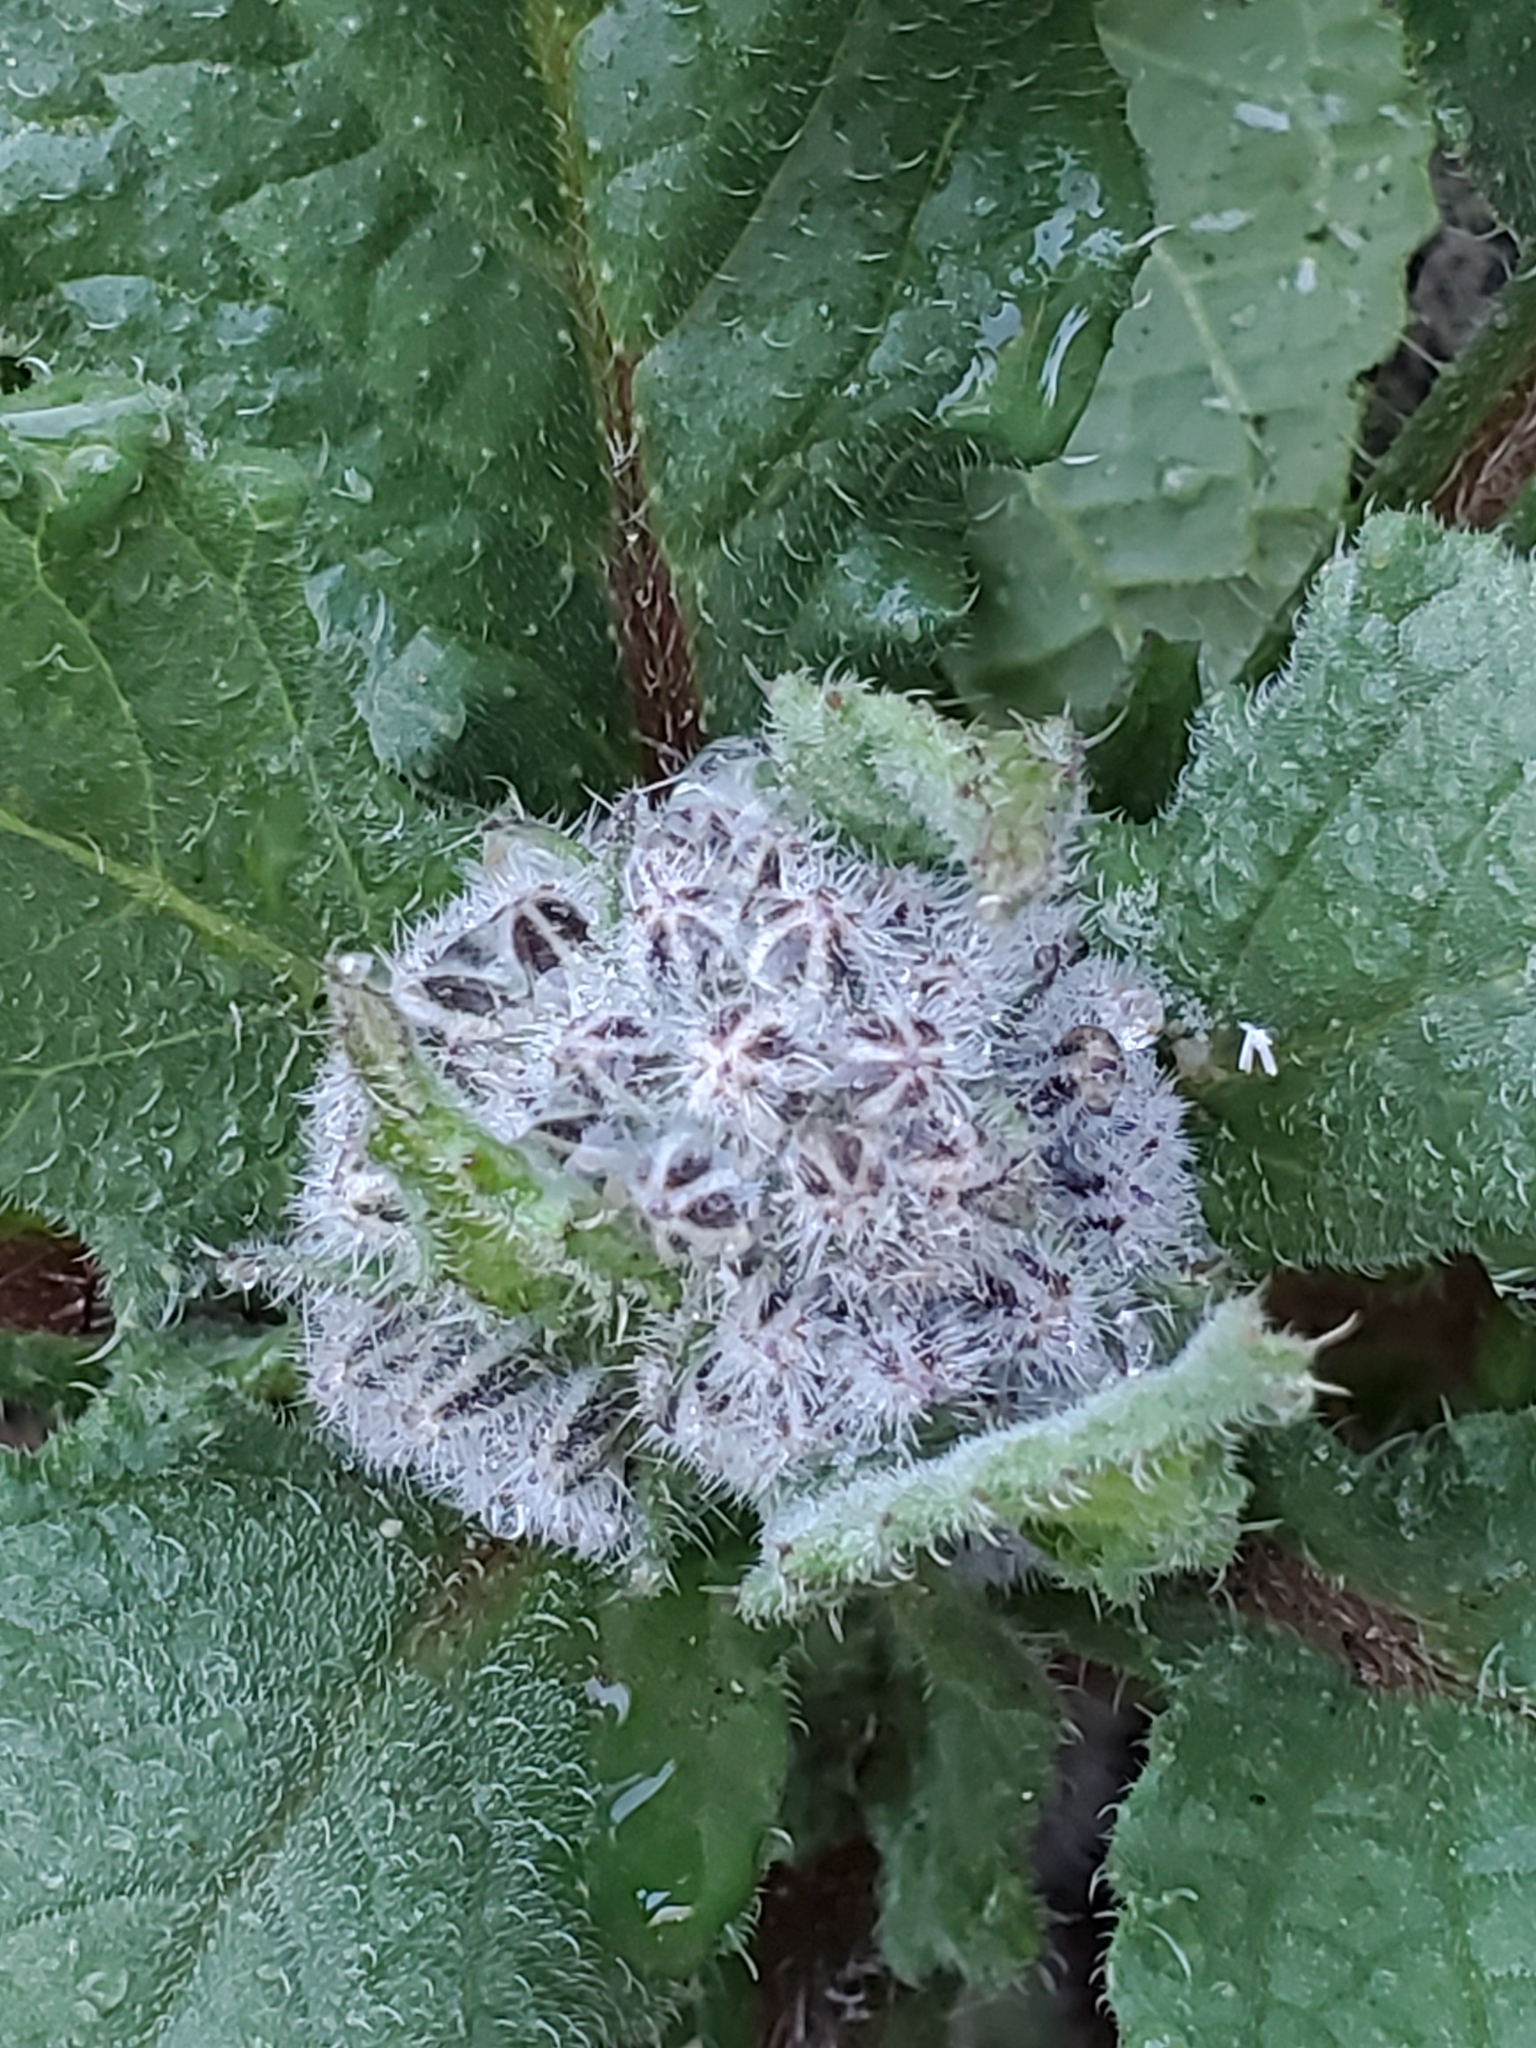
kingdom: Plantae
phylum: Tracheophyta
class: Magnoliopsida
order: Boraginales
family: Boraginaceae
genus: Borago
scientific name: Borago officinalis
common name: Borage
